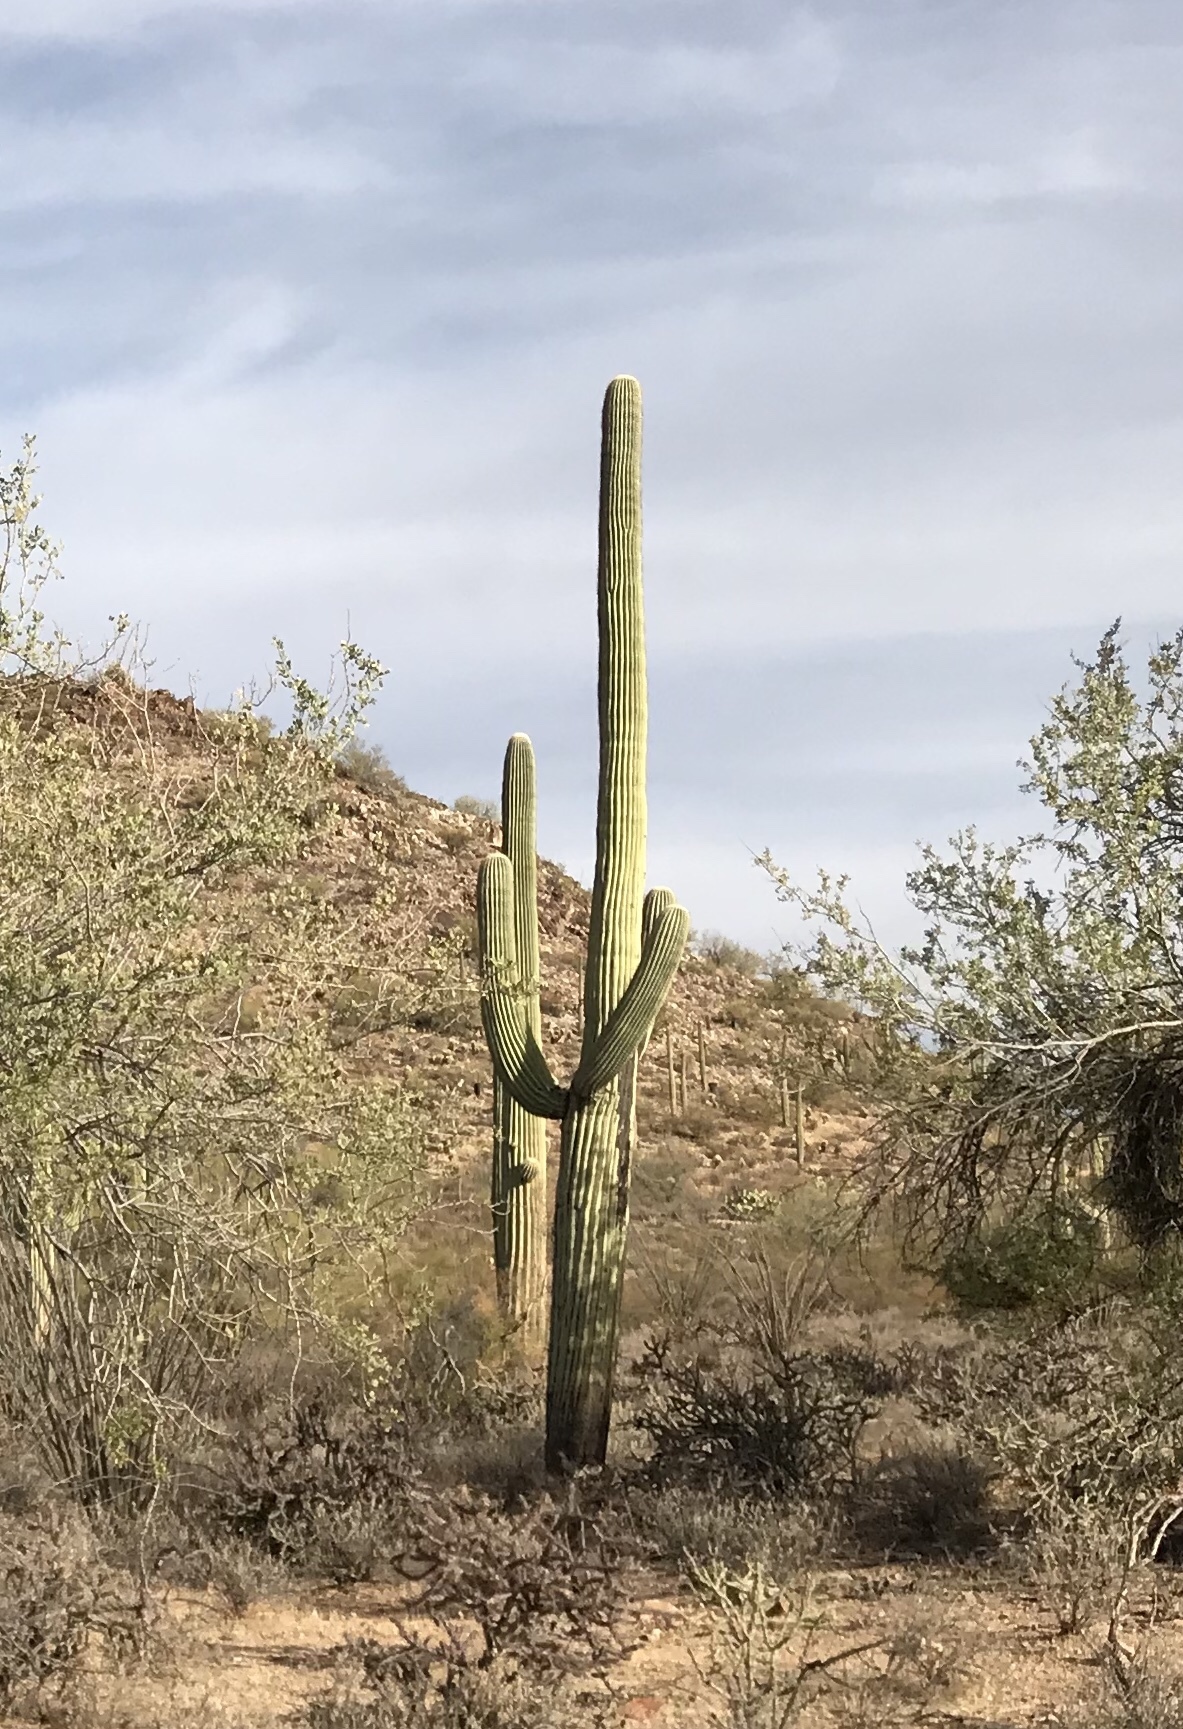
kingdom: Plantae
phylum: Tracheophyta
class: Magnoliopsida
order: Caryophyllales
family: Cactaceae
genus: Carnegiea
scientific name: Carnegiea gigantea
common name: Saguaro
